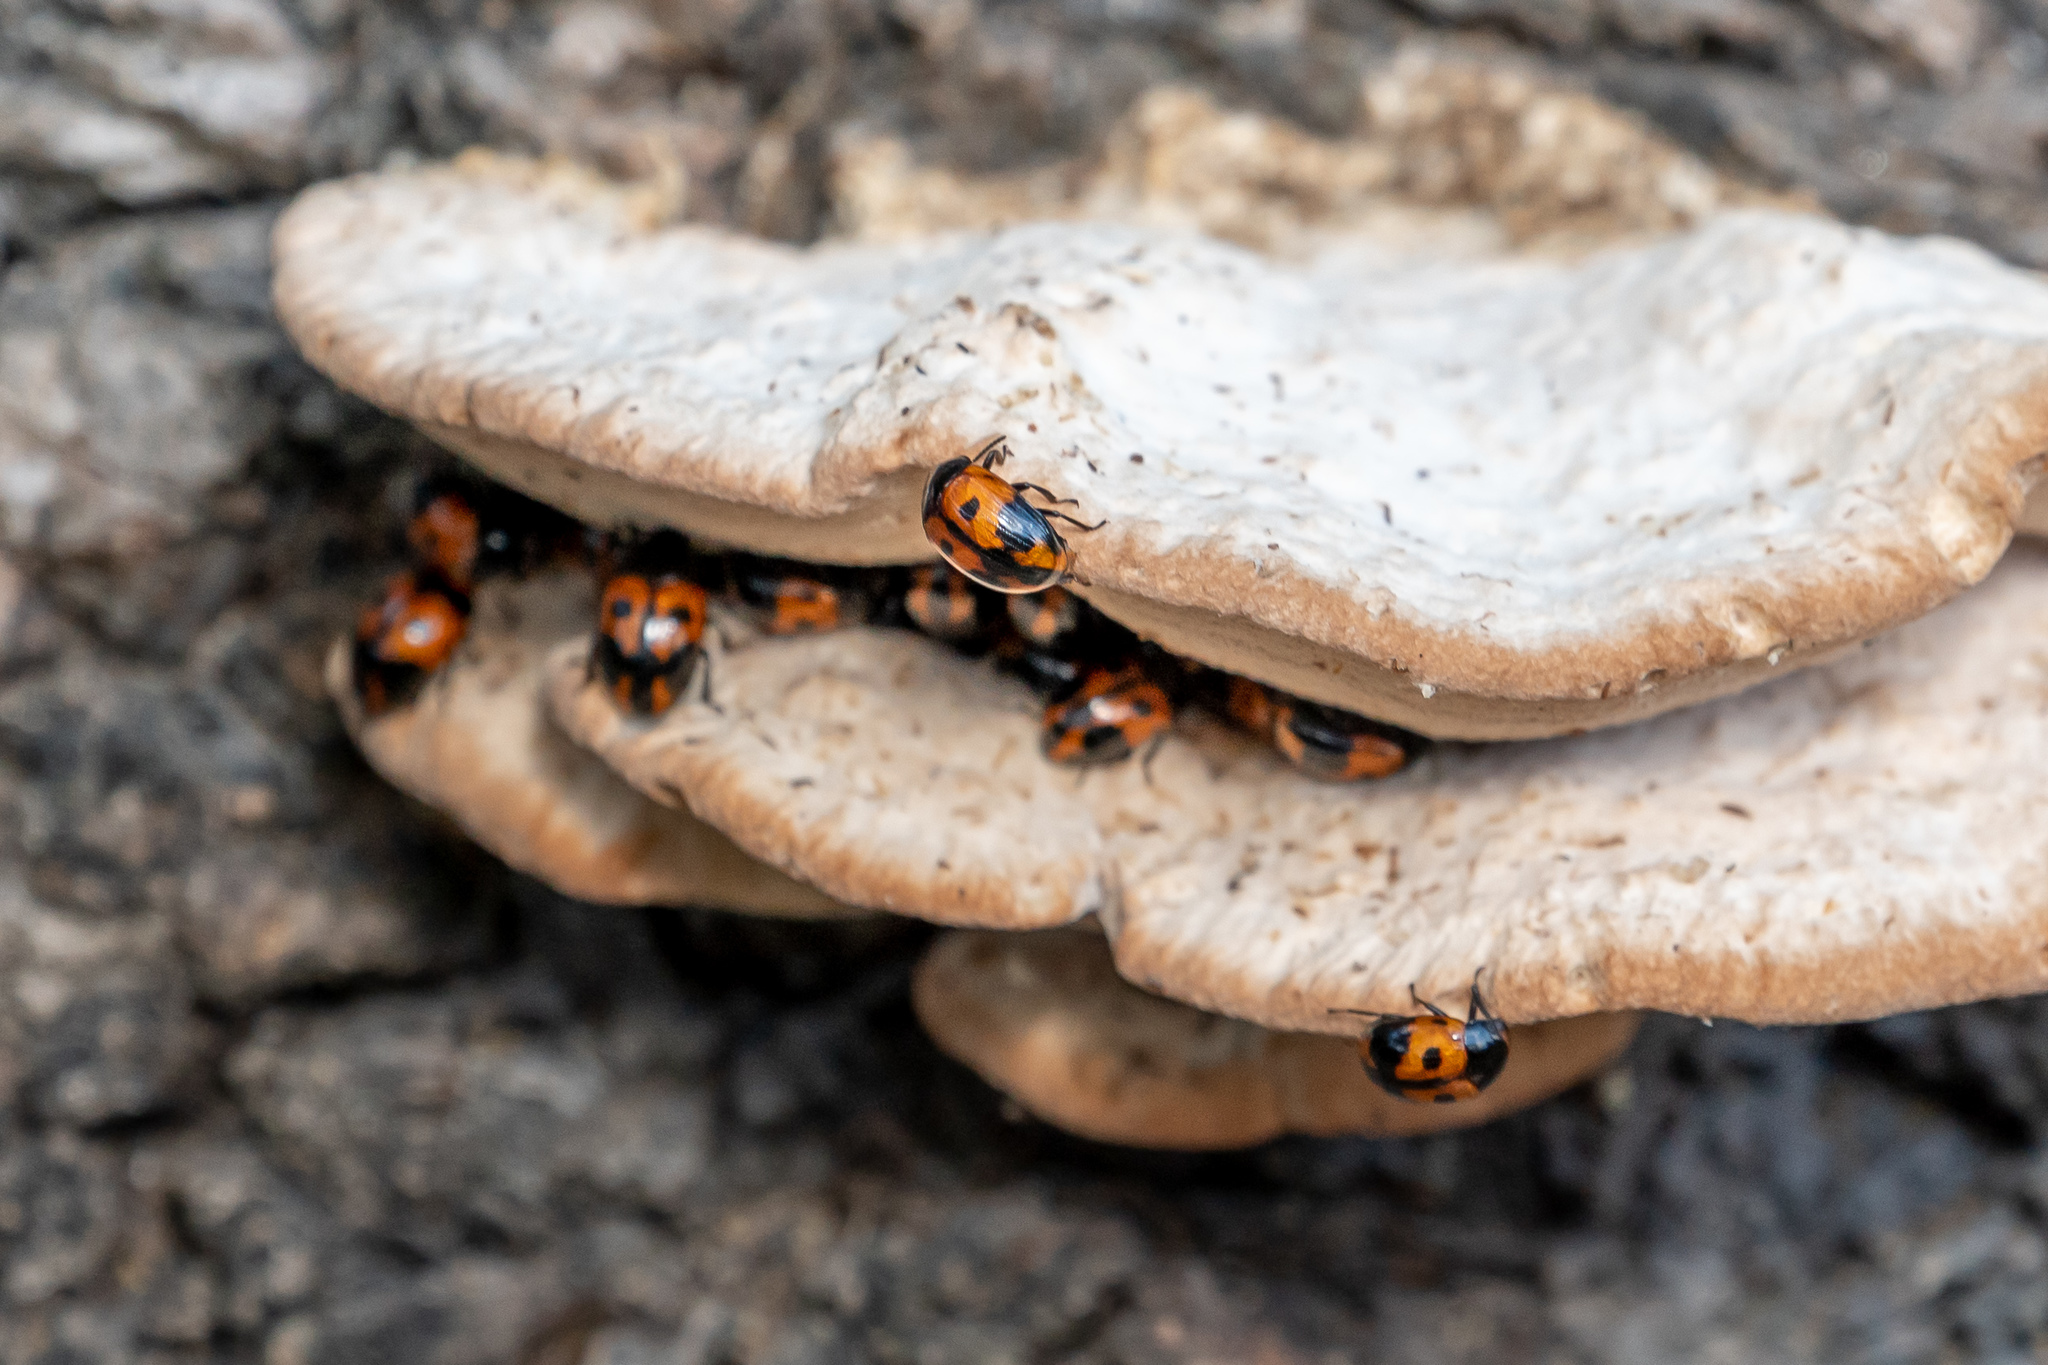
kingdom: Animalia
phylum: Arthropoda
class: Insecta
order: Coleoptera
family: Tenebrionidae
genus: Diaperis
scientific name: Diaperis maculata
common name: Darkling beetle
